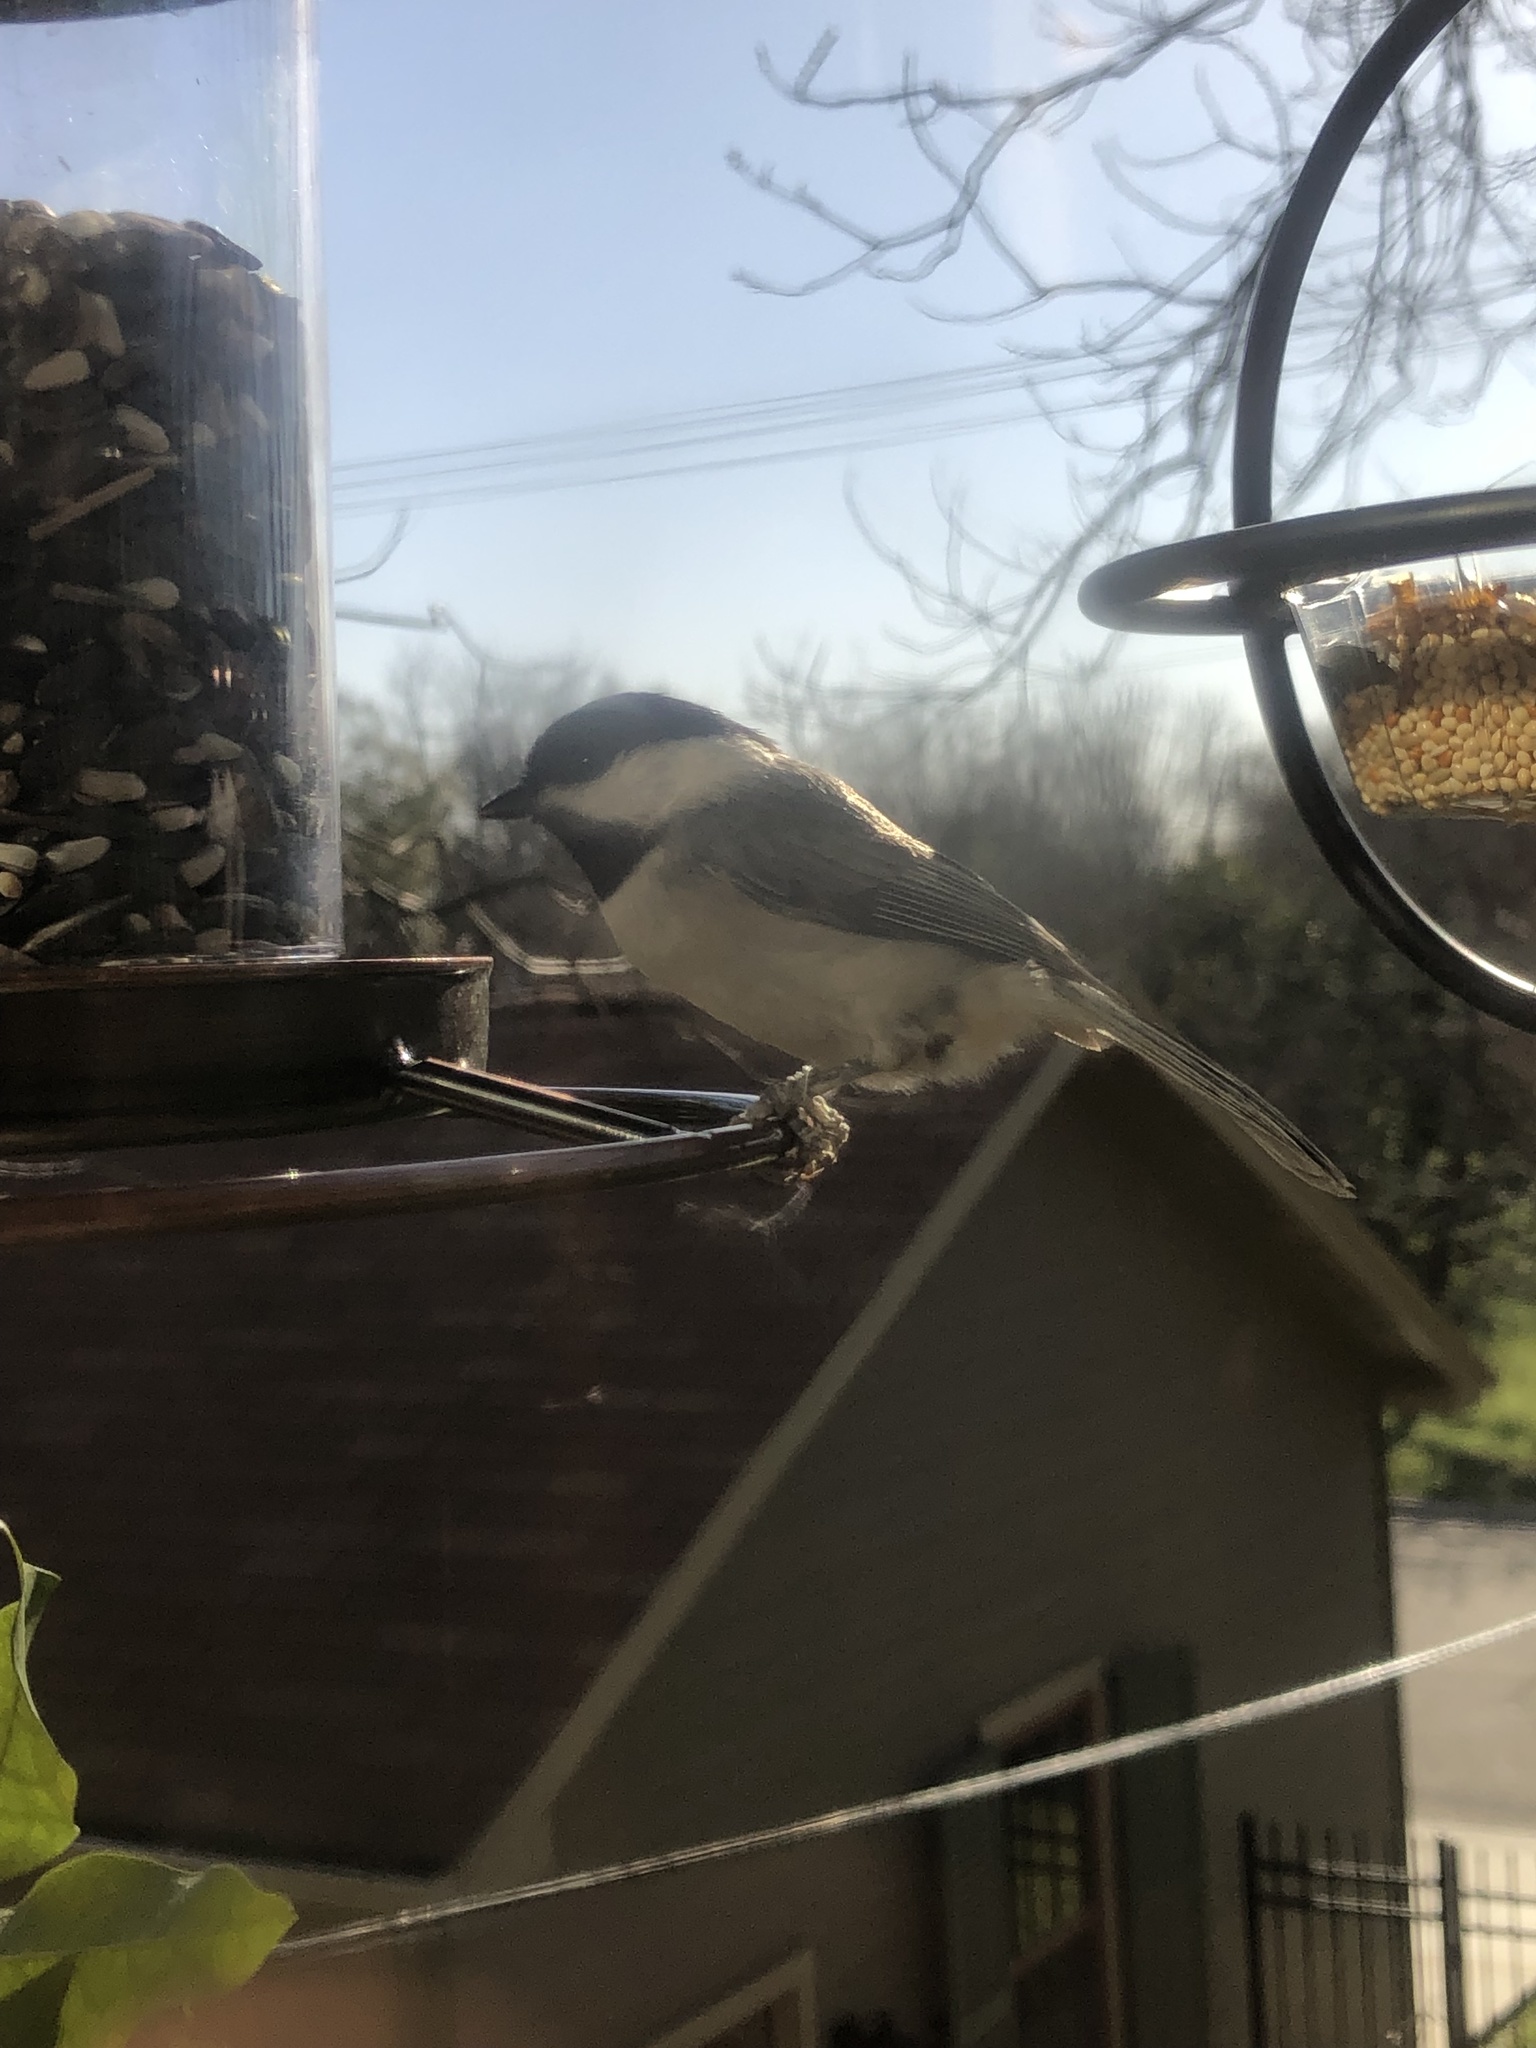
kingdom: Animalia
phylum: Chordata
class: Aves
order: Passeriformes
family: Paridae
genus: Poecile
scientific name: Poecile carolinensis
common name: Carolina chickadee
